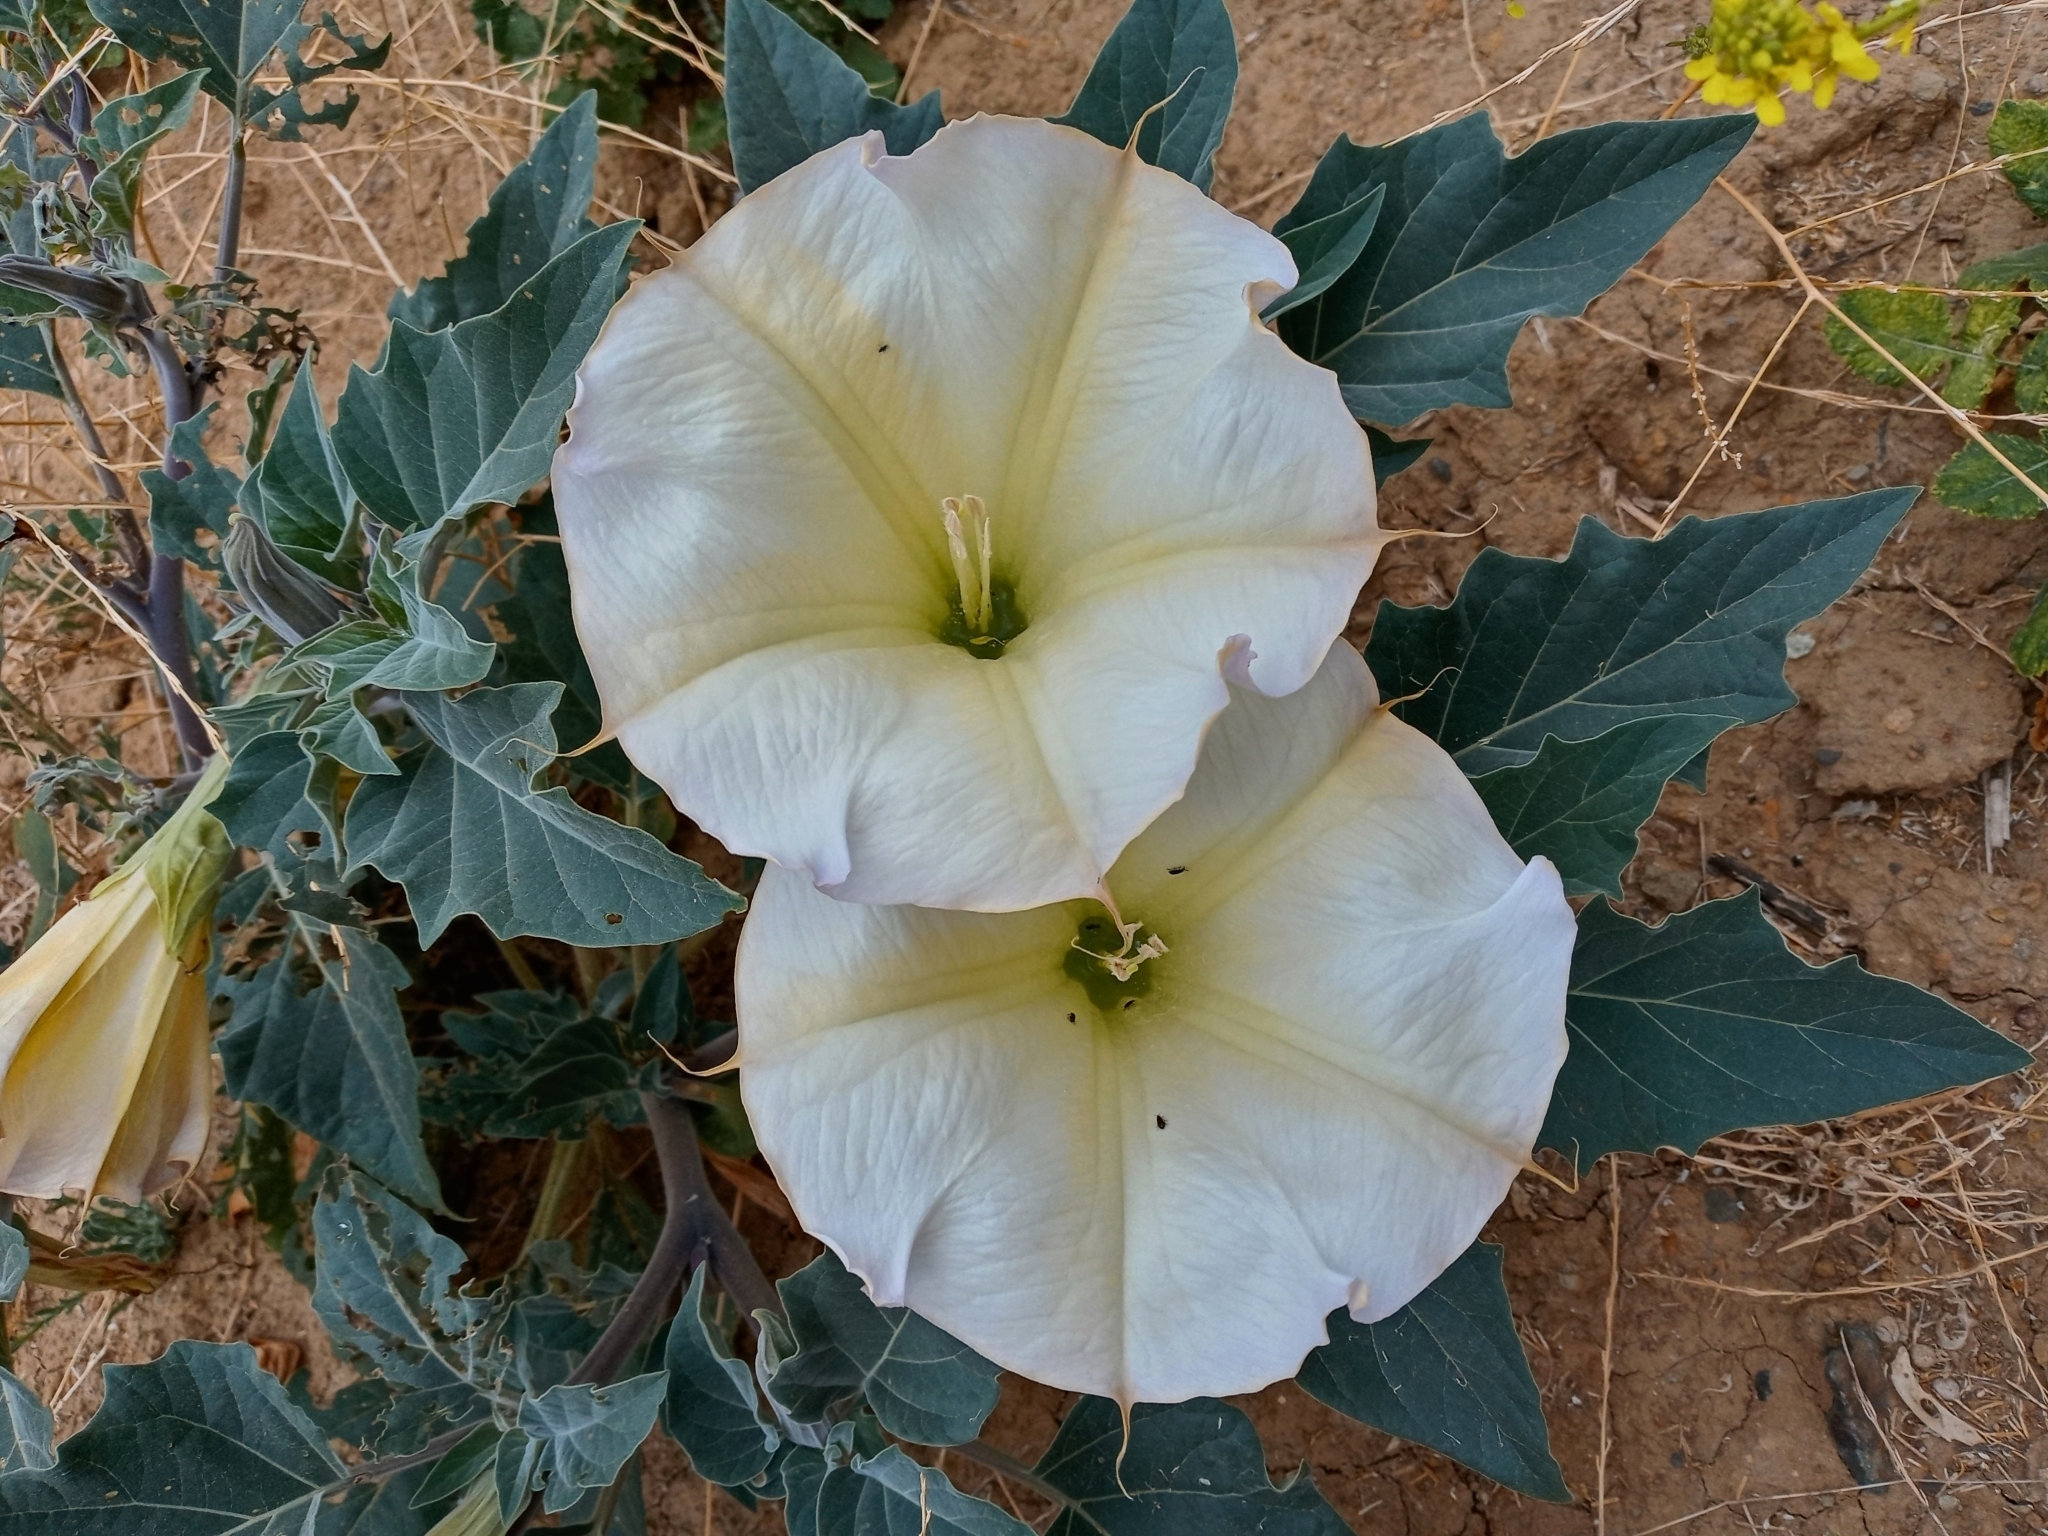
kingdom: Plantae
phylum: Tracheophyta
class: Magnoliopsida
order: Solanales
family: Solanaceae
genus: Datura
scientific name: Datura wrightii
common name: Sacred thorn-apple
